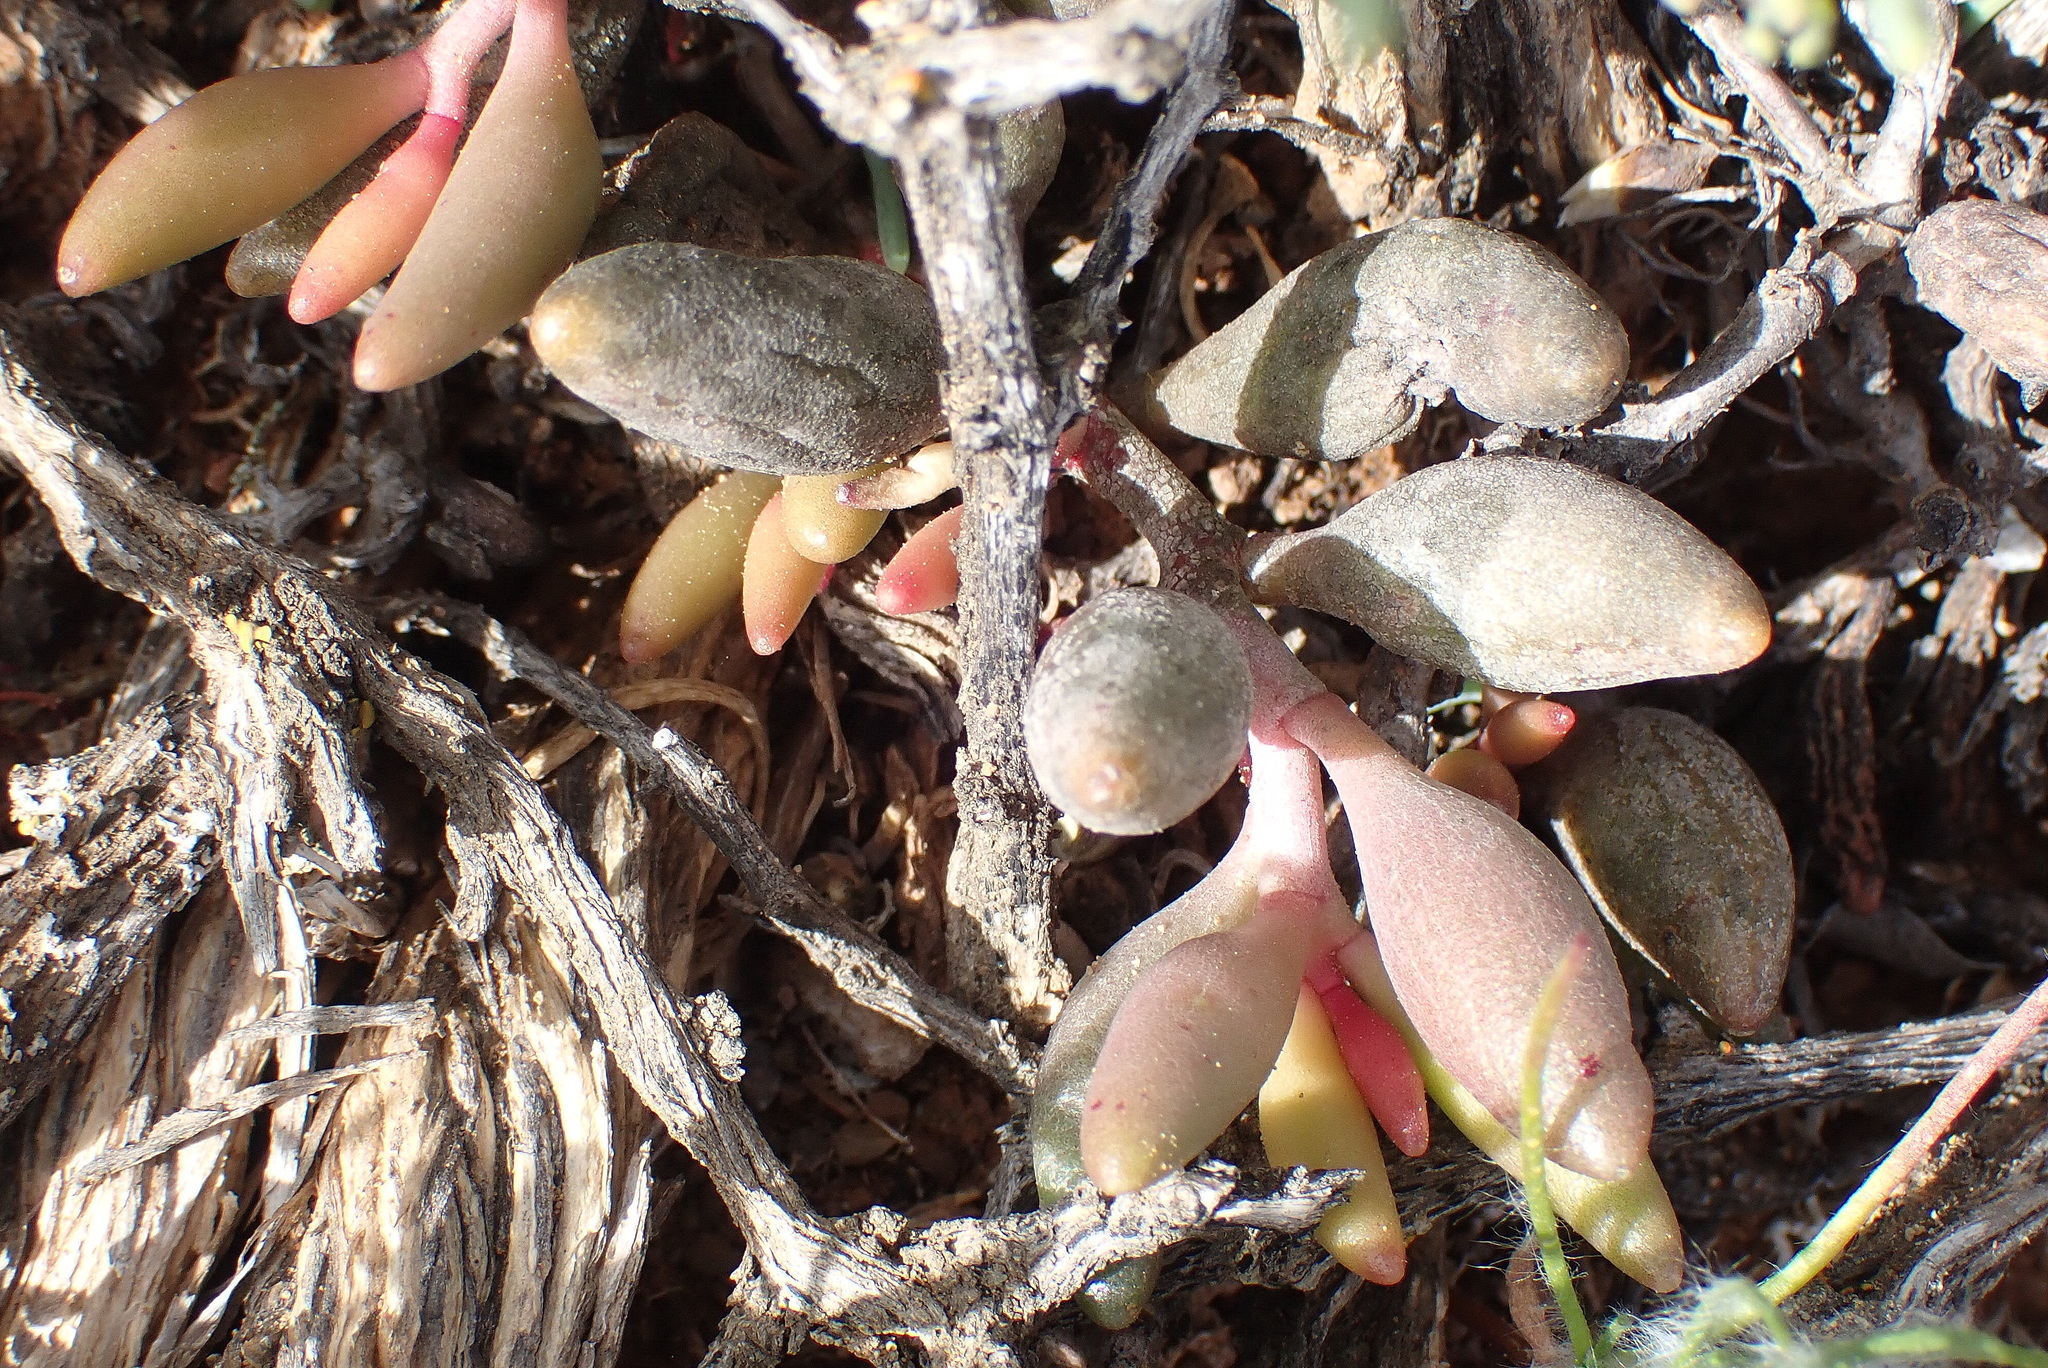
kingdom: Plantae
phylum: Tracheophyta
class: Magnoliopsida
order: Saxifragales
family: Crassulaceae
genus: Adromischus
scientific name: Adromischus filicaulis
